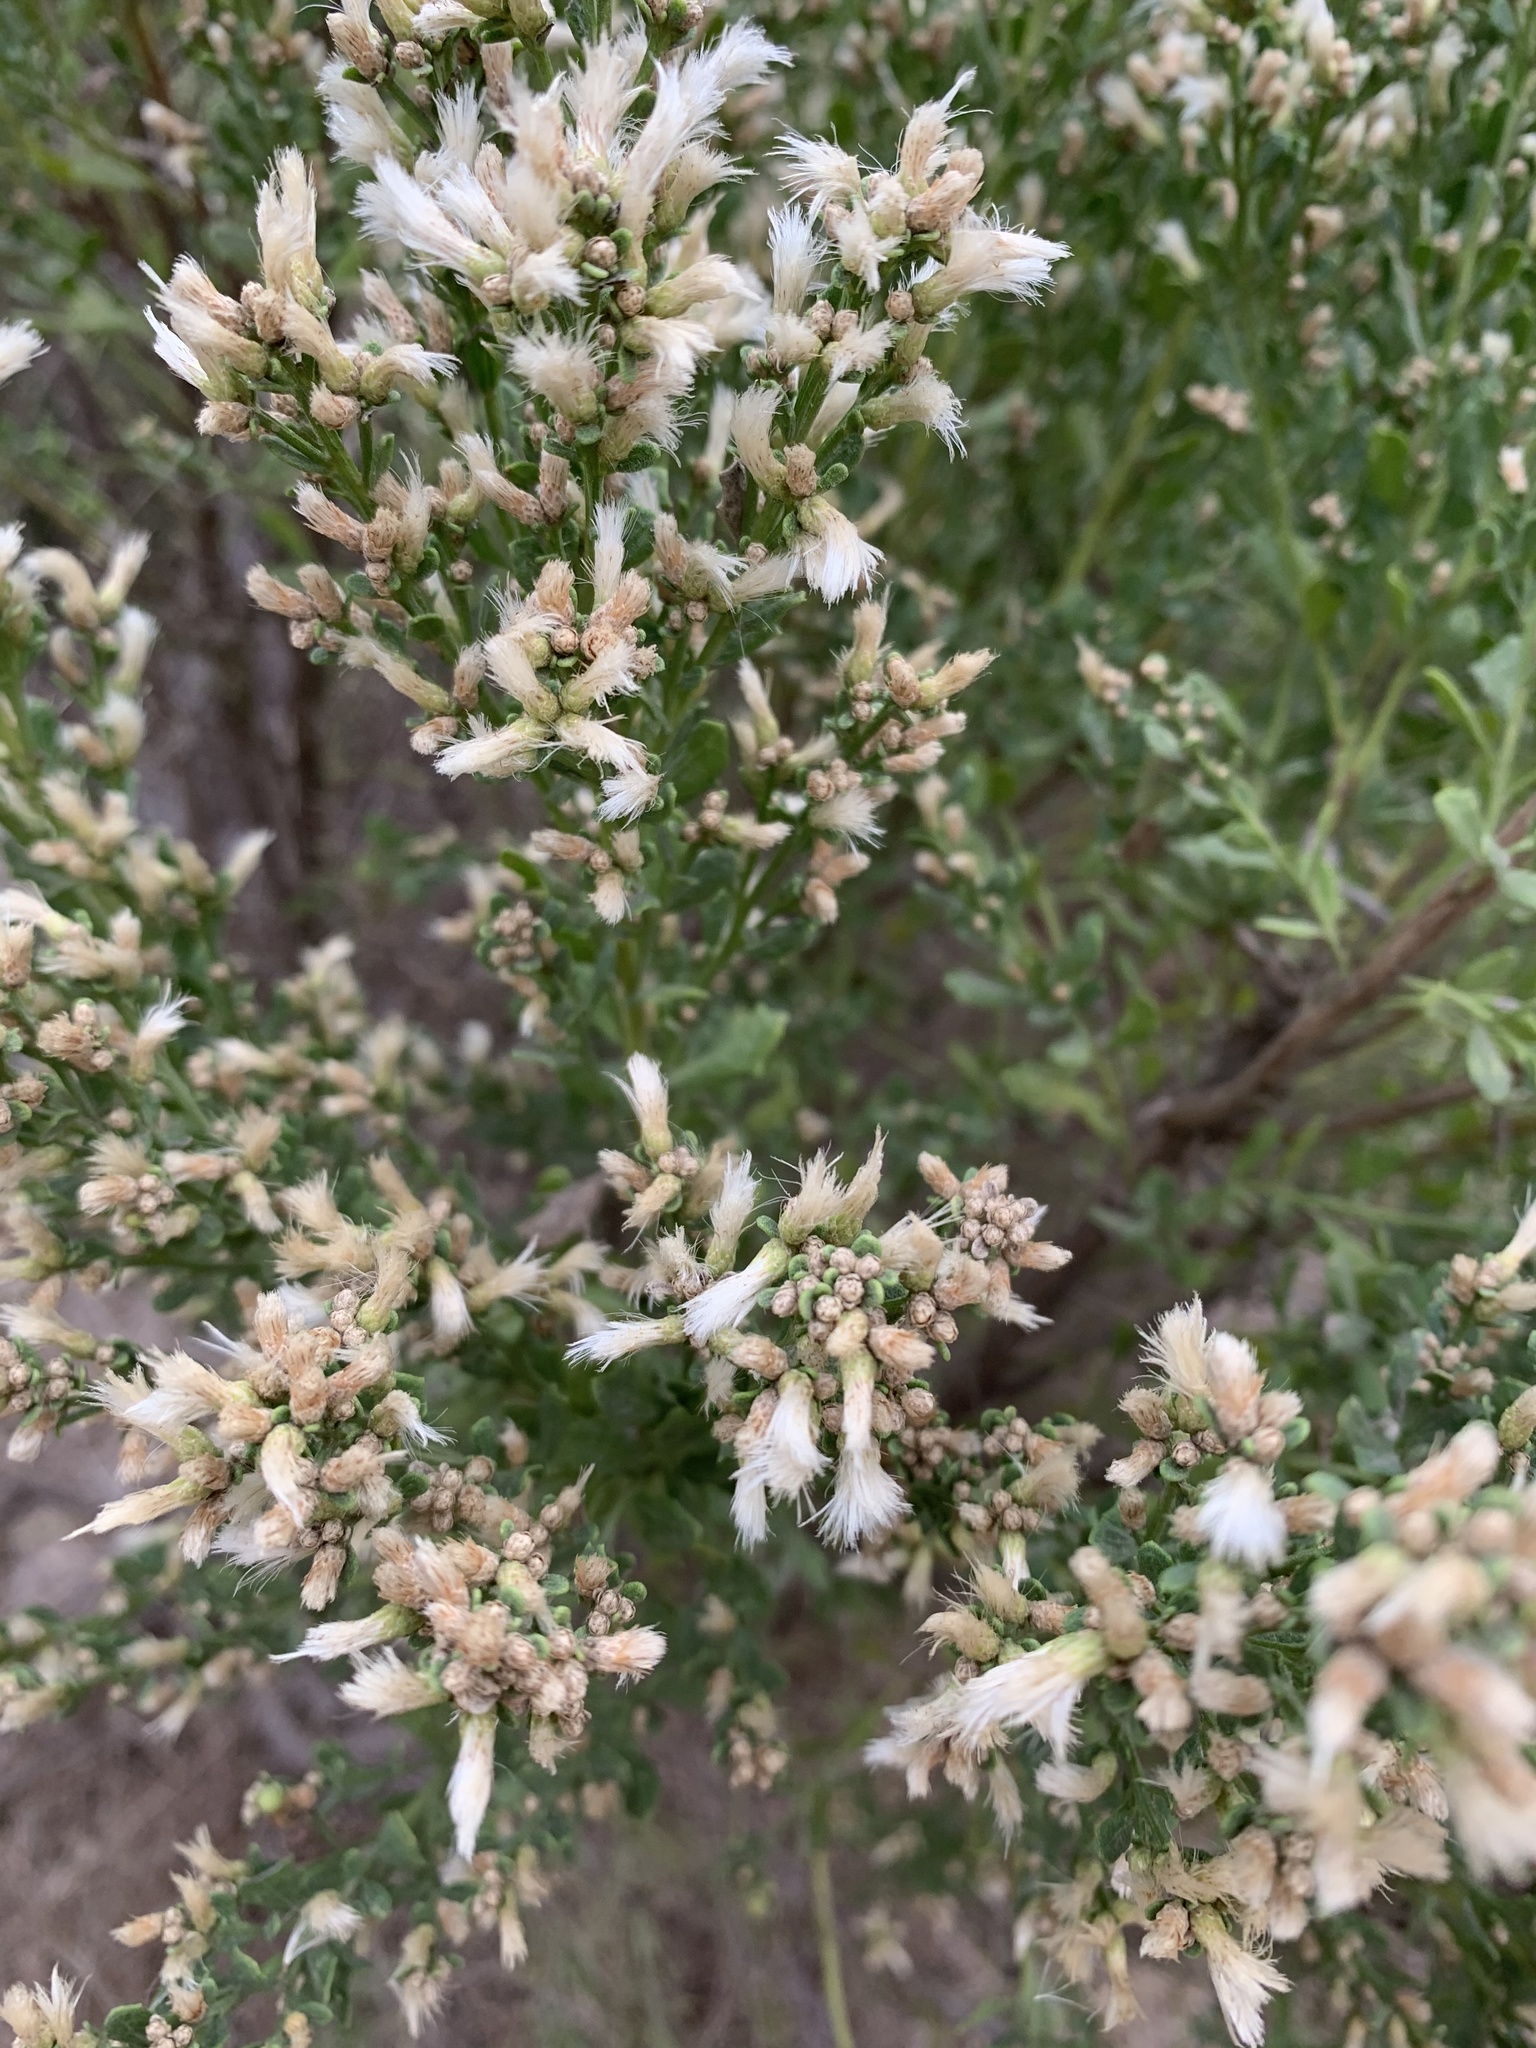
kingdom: Plantae
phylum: Tracheophyta
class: Magnoliopsida
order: Asterales
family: Asteraceae
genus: Baccharis
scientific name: Baccharis pilularis
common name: Coyotebrush
